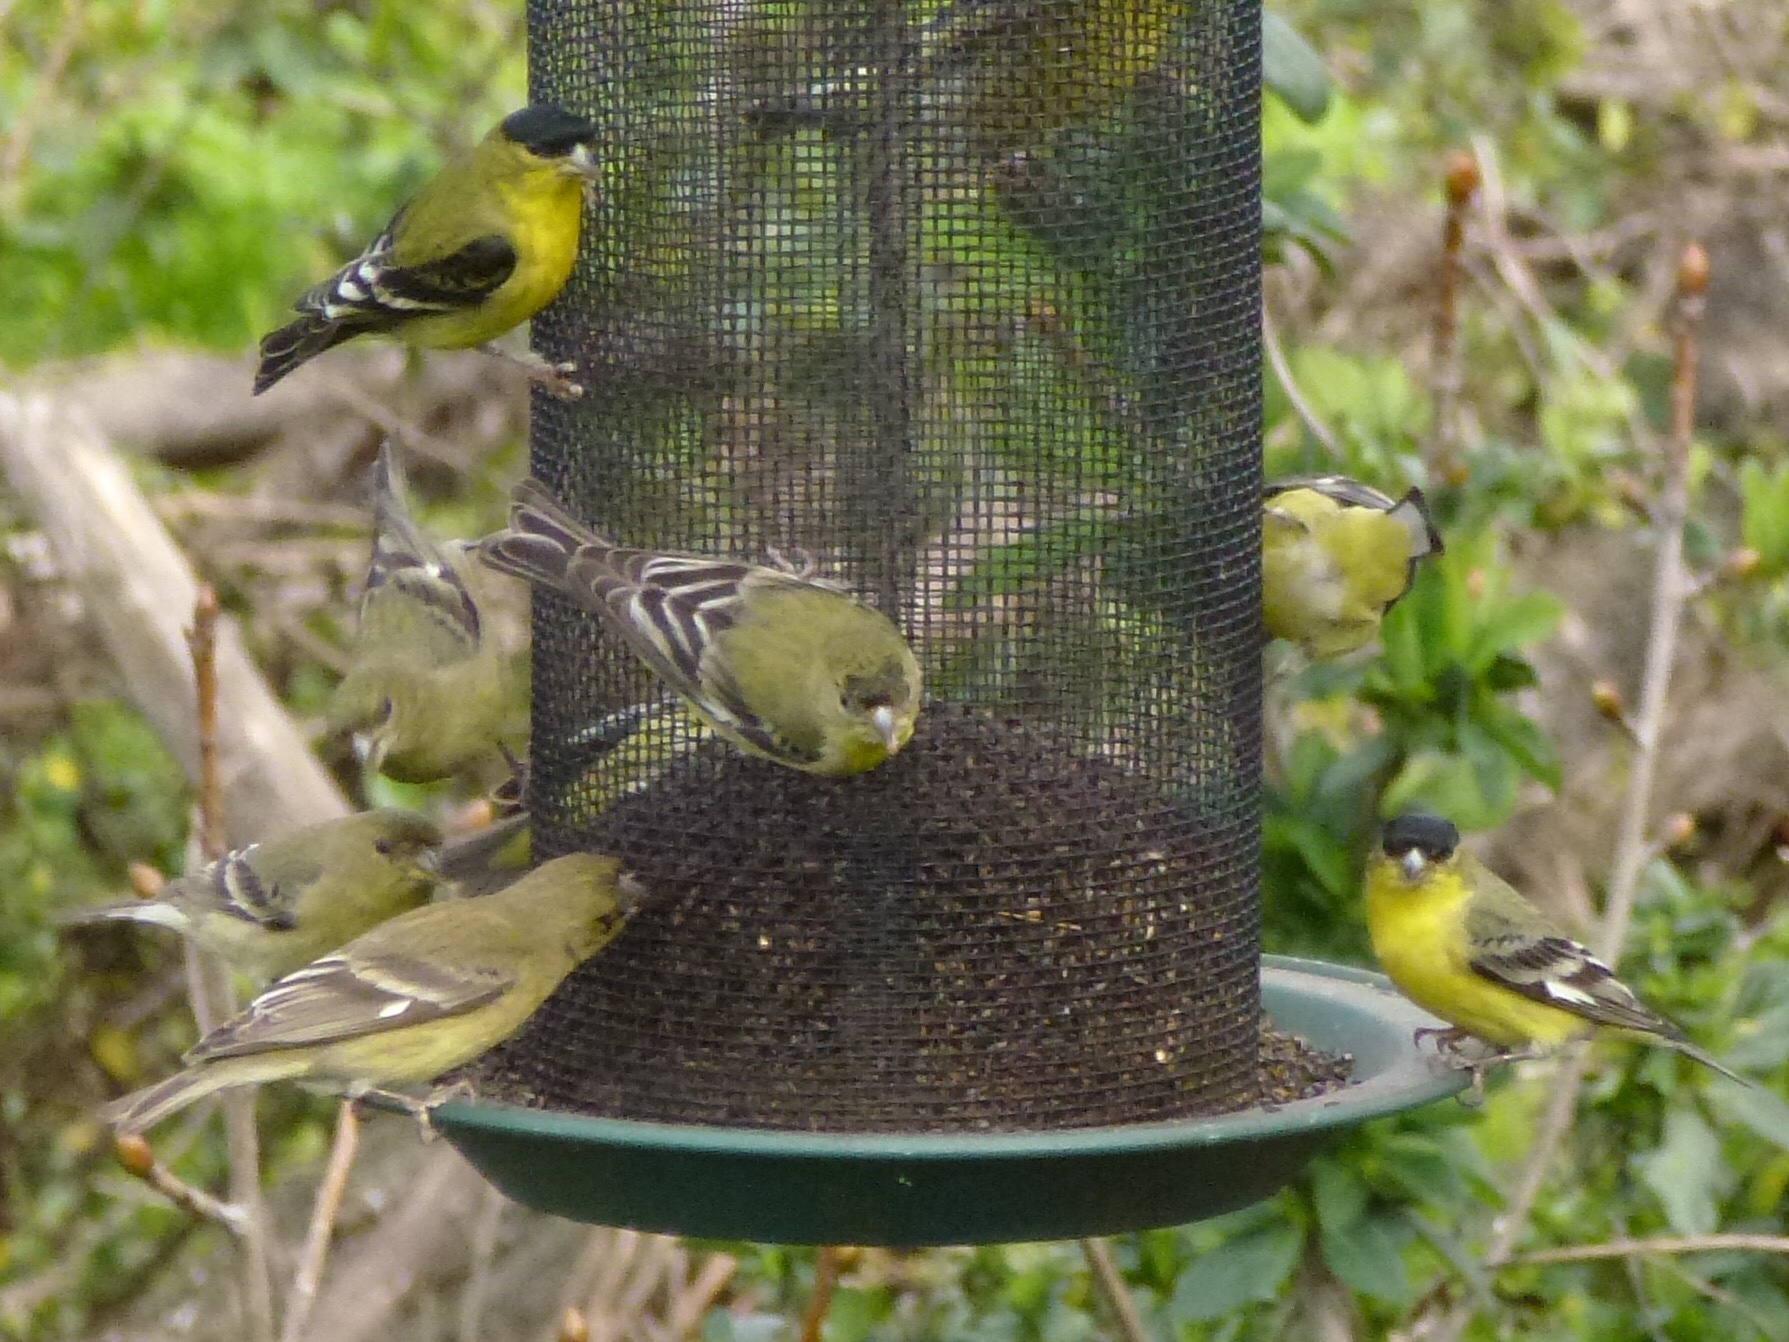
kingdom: Animalia
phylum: Chordata
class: Aves
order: Passeriformes
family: Fringillidae
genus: Spinus
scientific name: Spinus psaltria
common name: Lesser goldfinch
